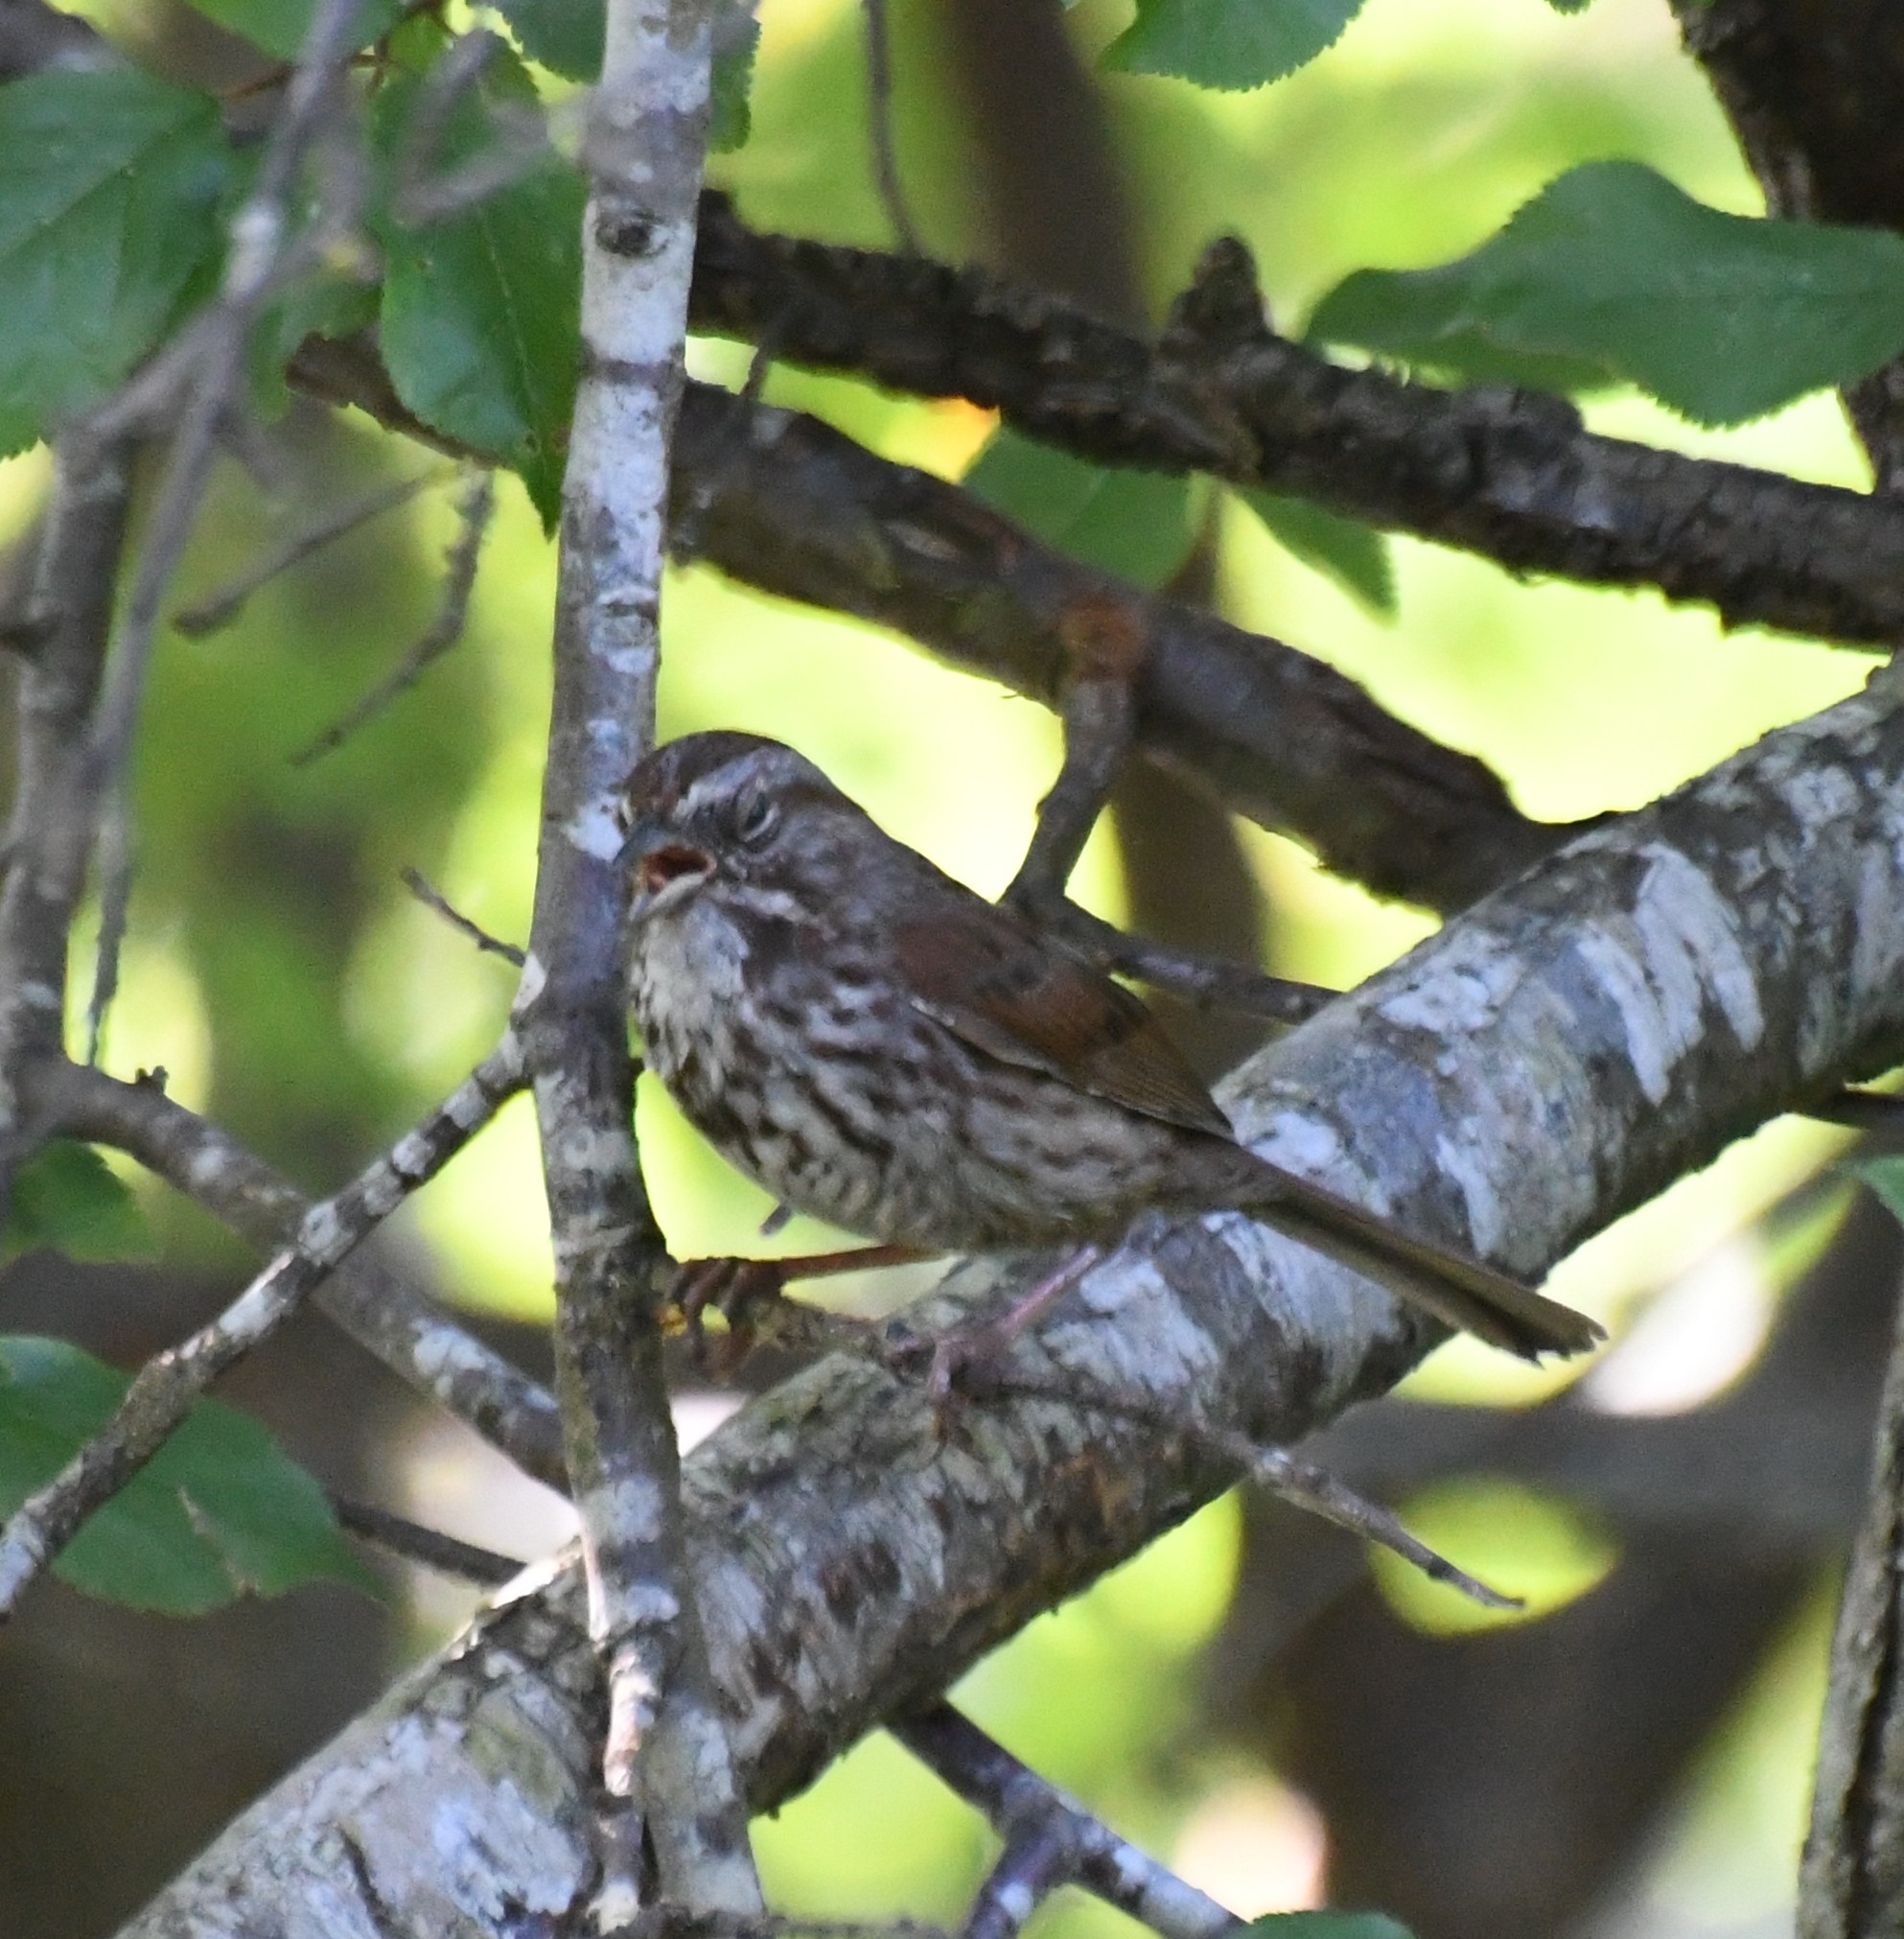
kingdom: Animalia
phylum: Chordata
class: Aves
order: Passeriformes
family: Passerellidae
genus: Melospiza
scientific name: Melospiza melodia
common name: Song sparrow
